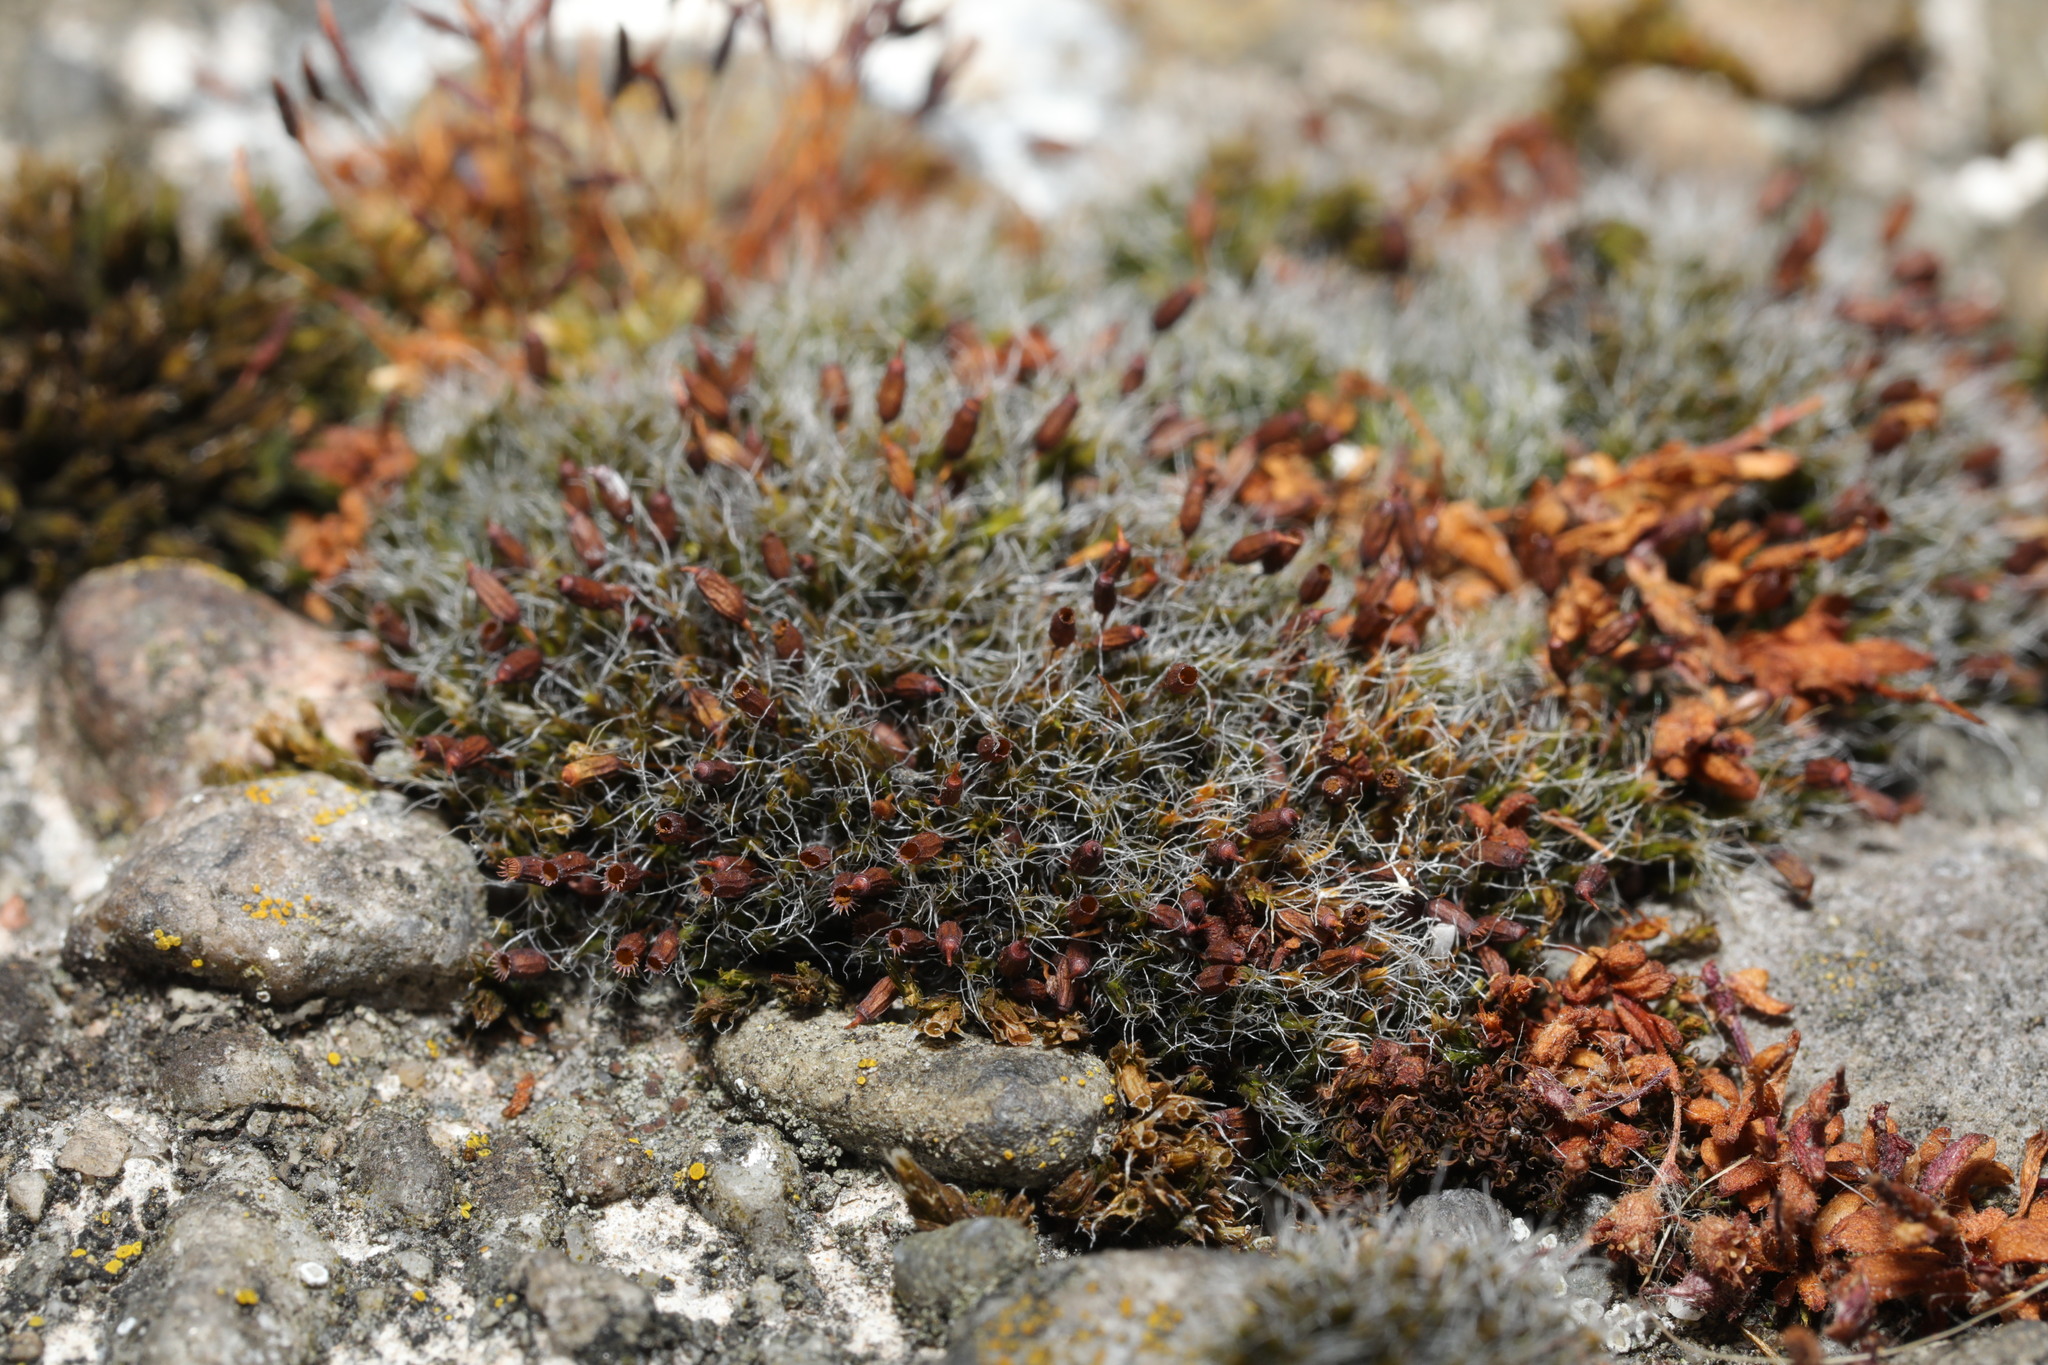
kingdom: Plantae
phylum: Bryophyta
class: Bryopsida
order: Grimmiales
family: Grimmiaceae
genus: Grimmia
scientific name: Grimmia pulvinata
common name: Grey-cushioned grimmia
